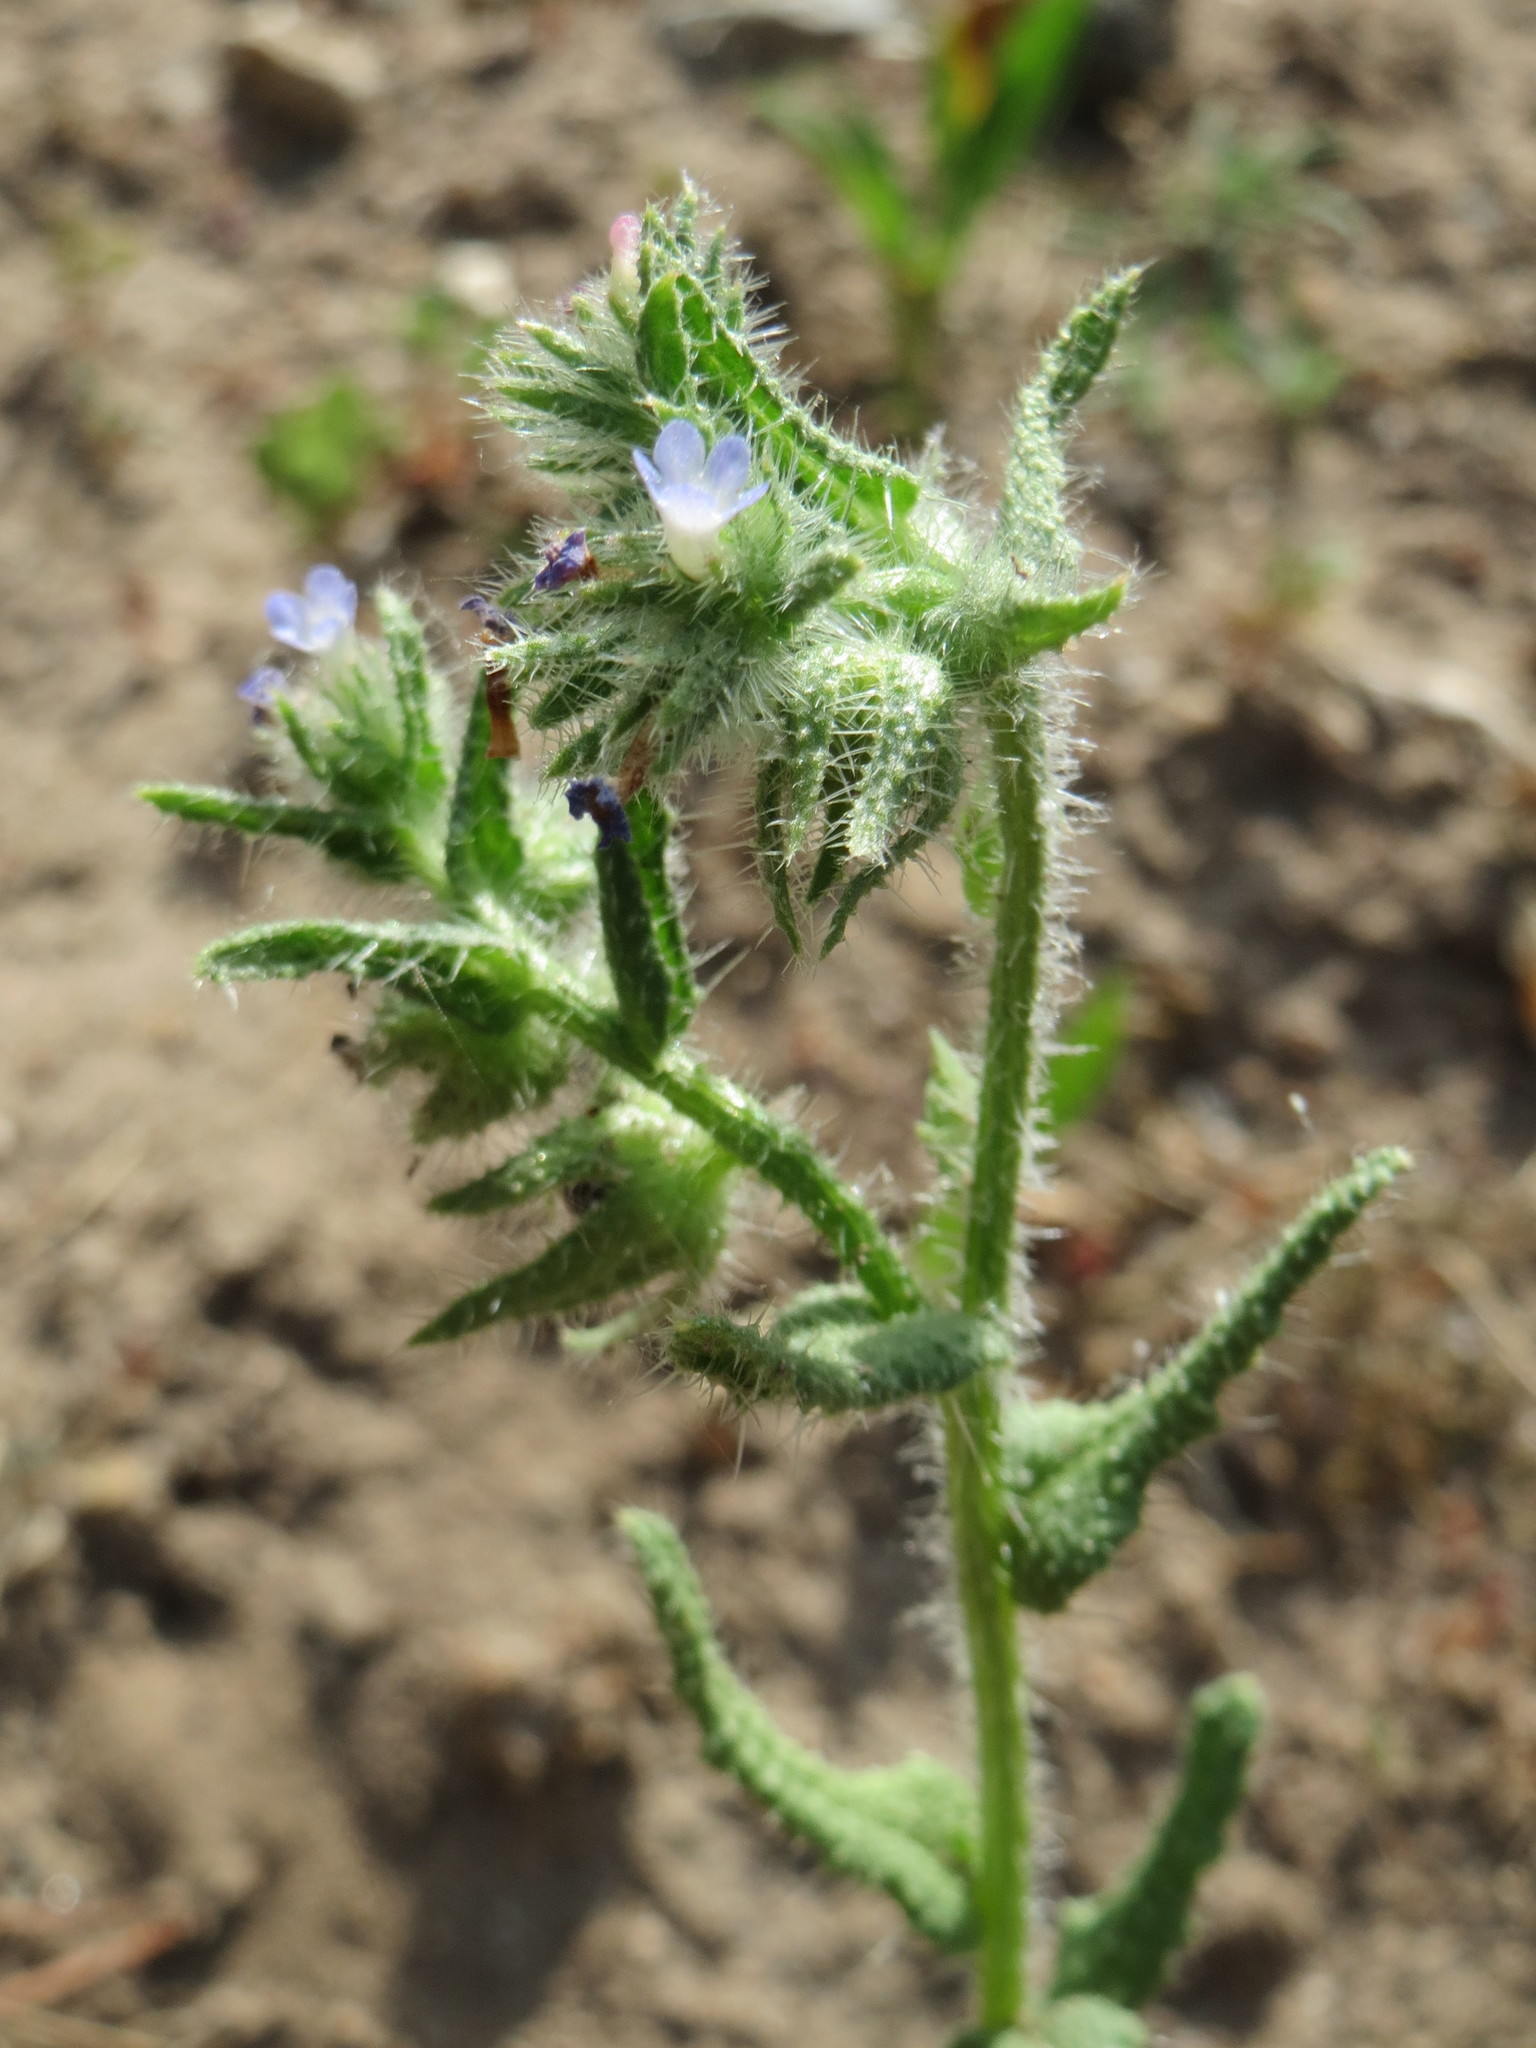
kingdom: Plantae
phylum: Tracheophyta
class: Magnoliopsida
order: Boraginales
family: Boraginaceae
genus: Lycopsis
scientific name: Lycopsis arvensis
